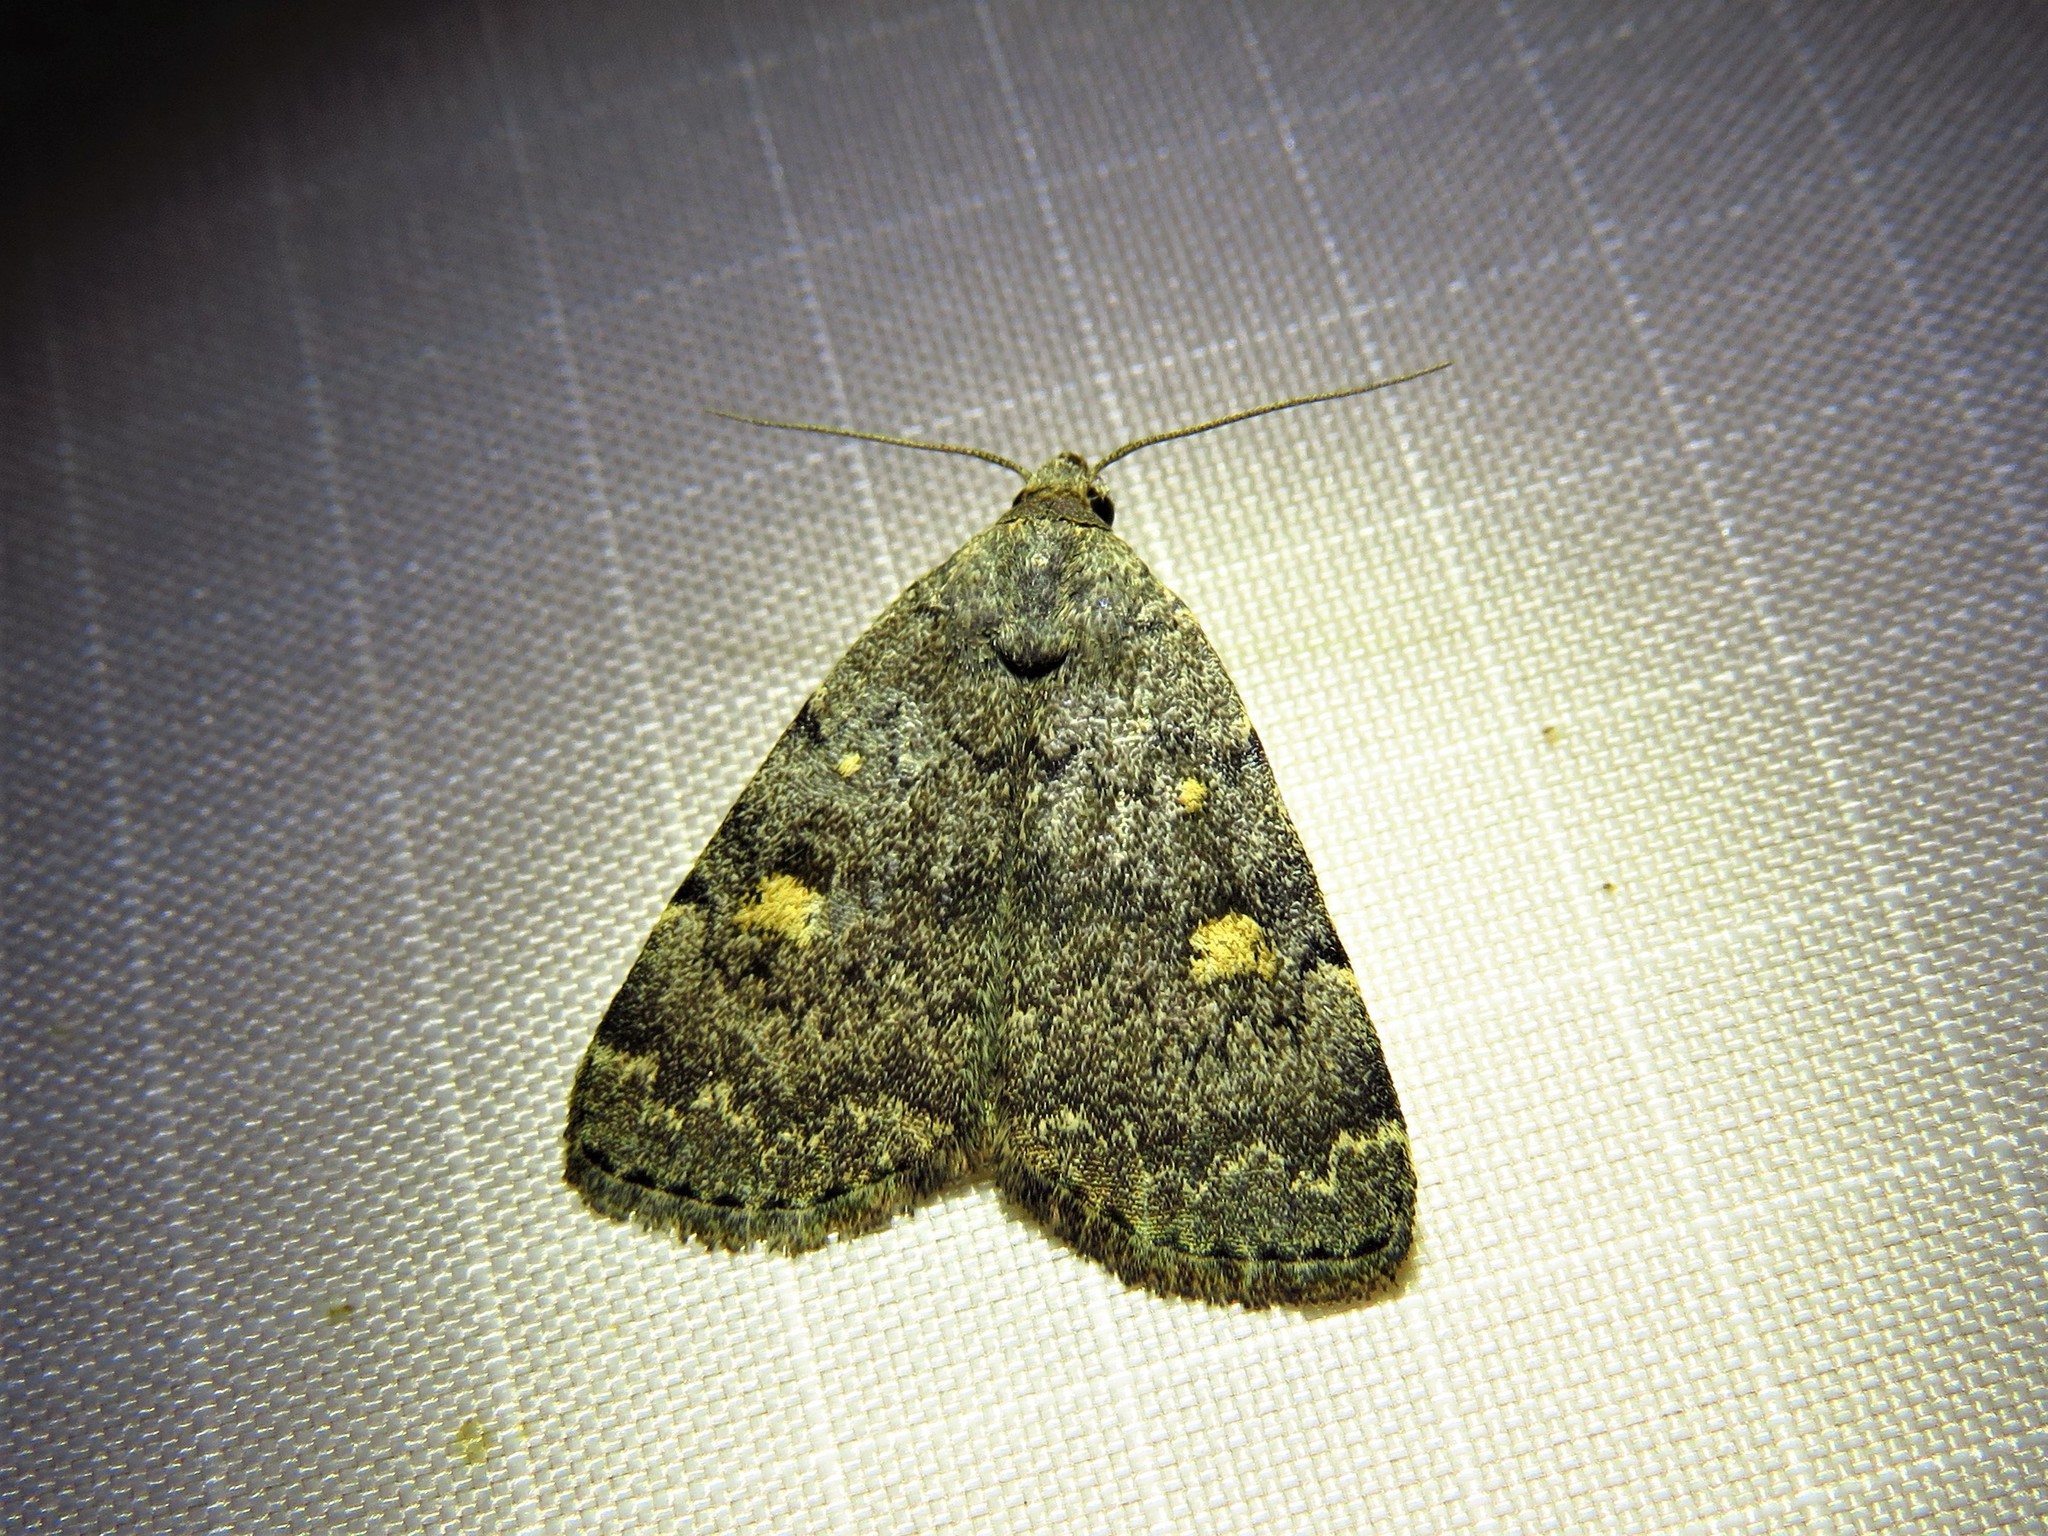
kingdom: Animalia
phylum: Arthropoda
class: Insecta
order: Lepidoptera
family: Erebidae
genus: Idia
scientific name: Idia aemula
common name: Common idia moth
